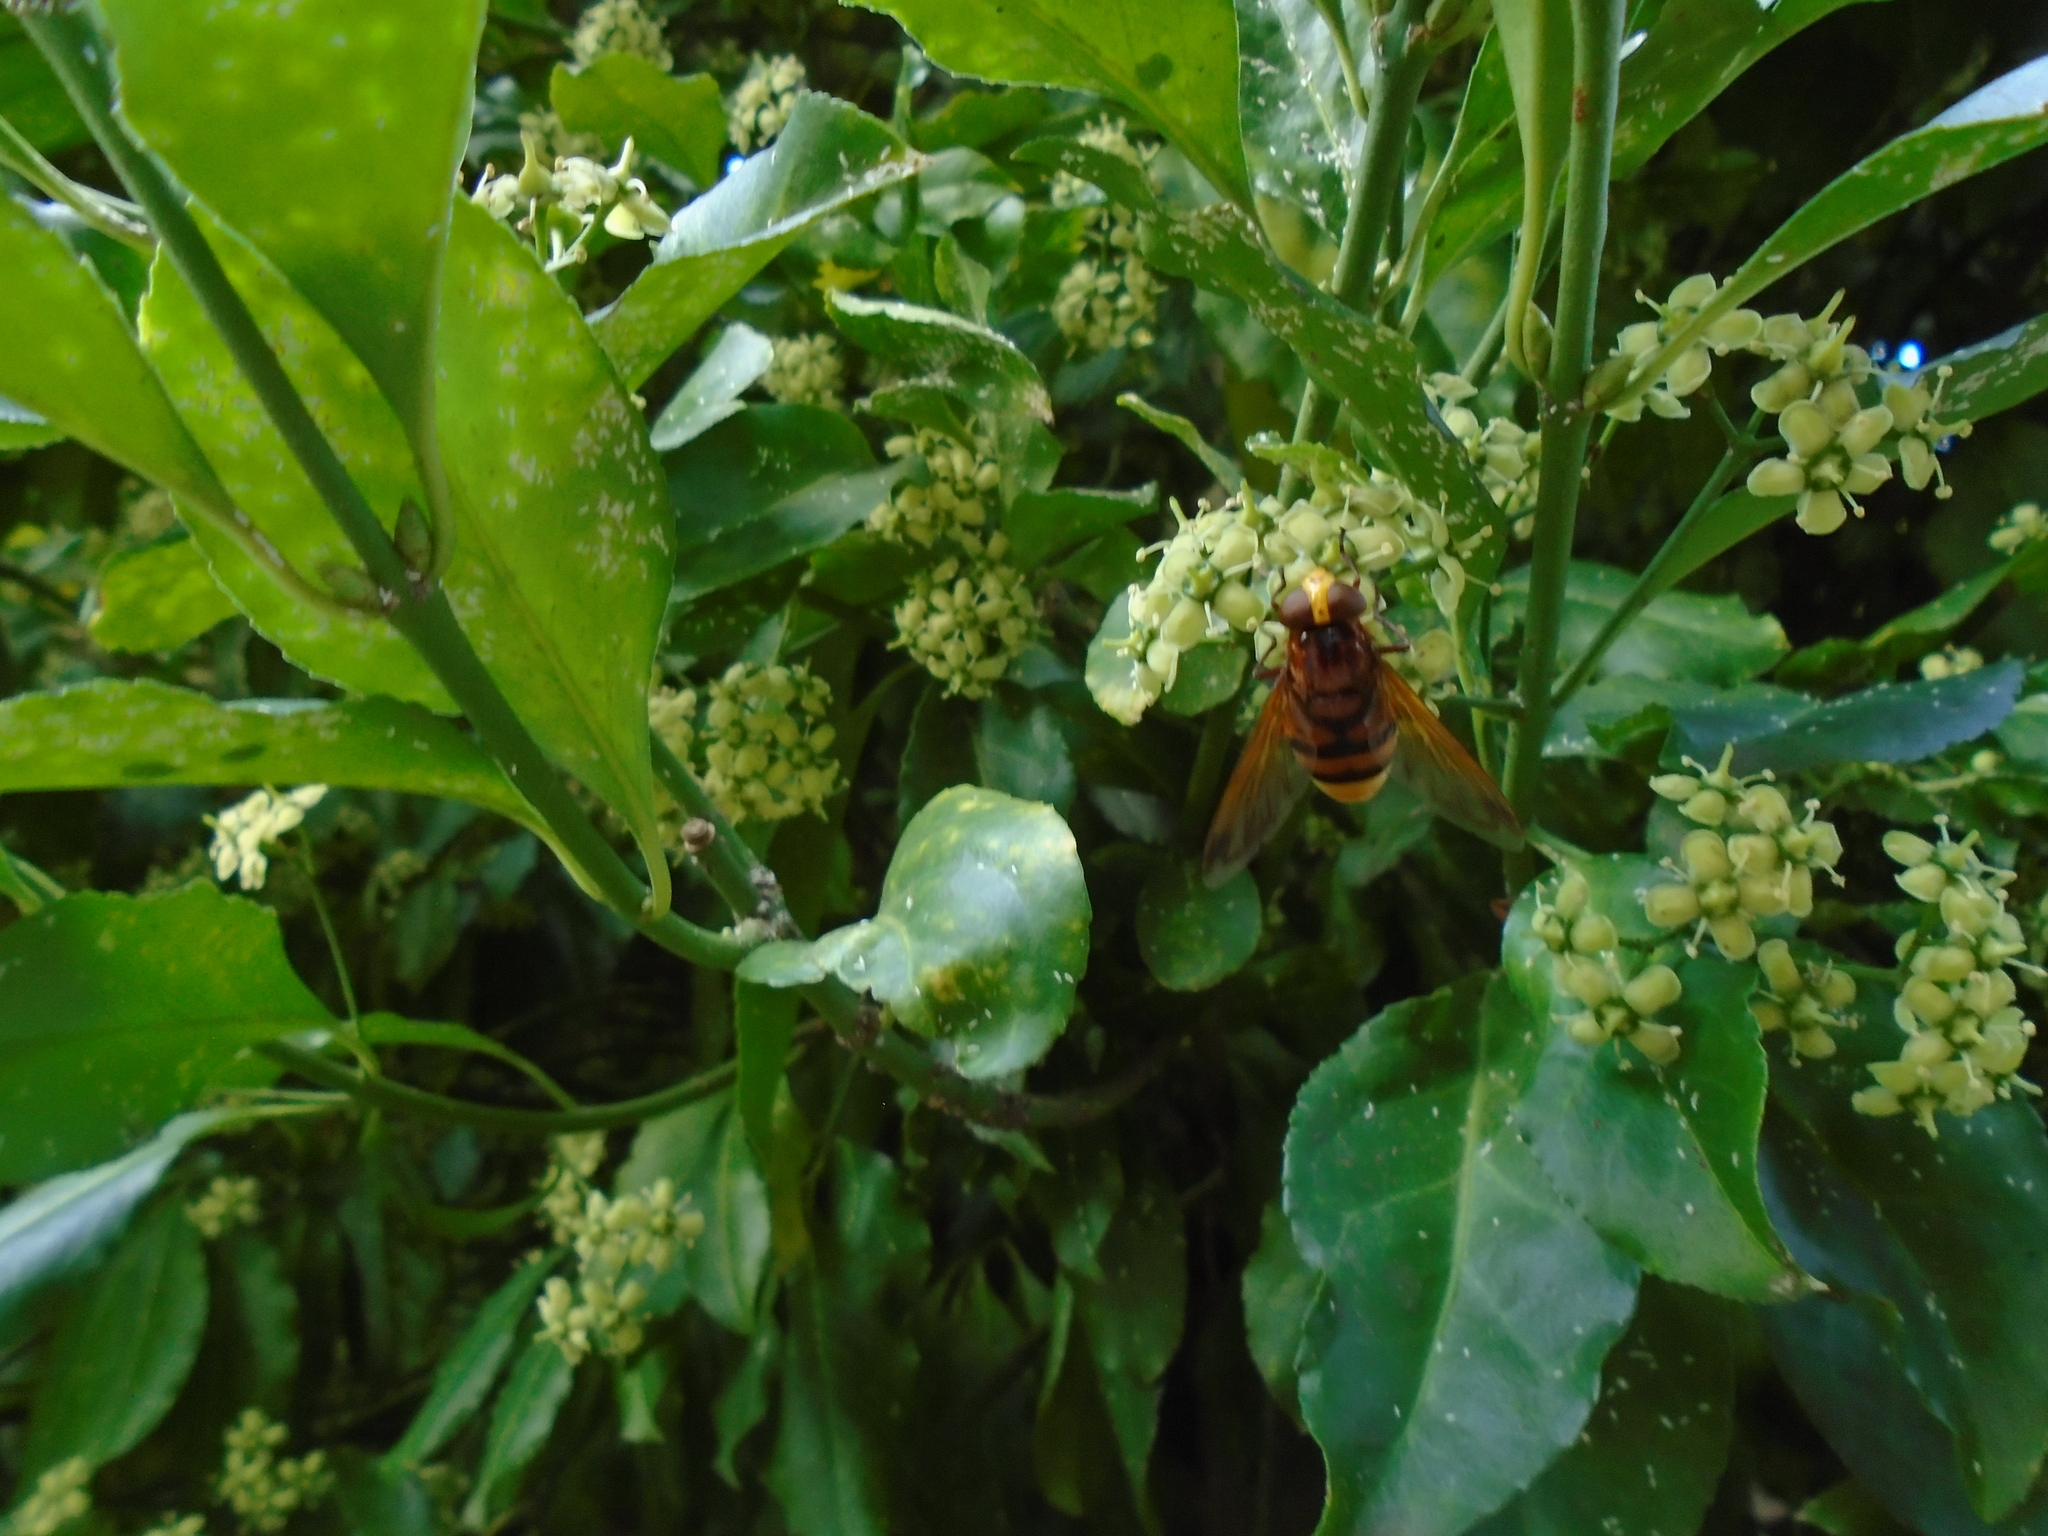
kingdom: Animalia
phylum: Arthropoda
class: Insecta
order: Diptera
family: Syrphidae
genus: Volucella
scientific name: Volucella zonaria
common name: Hornet hoverfly
